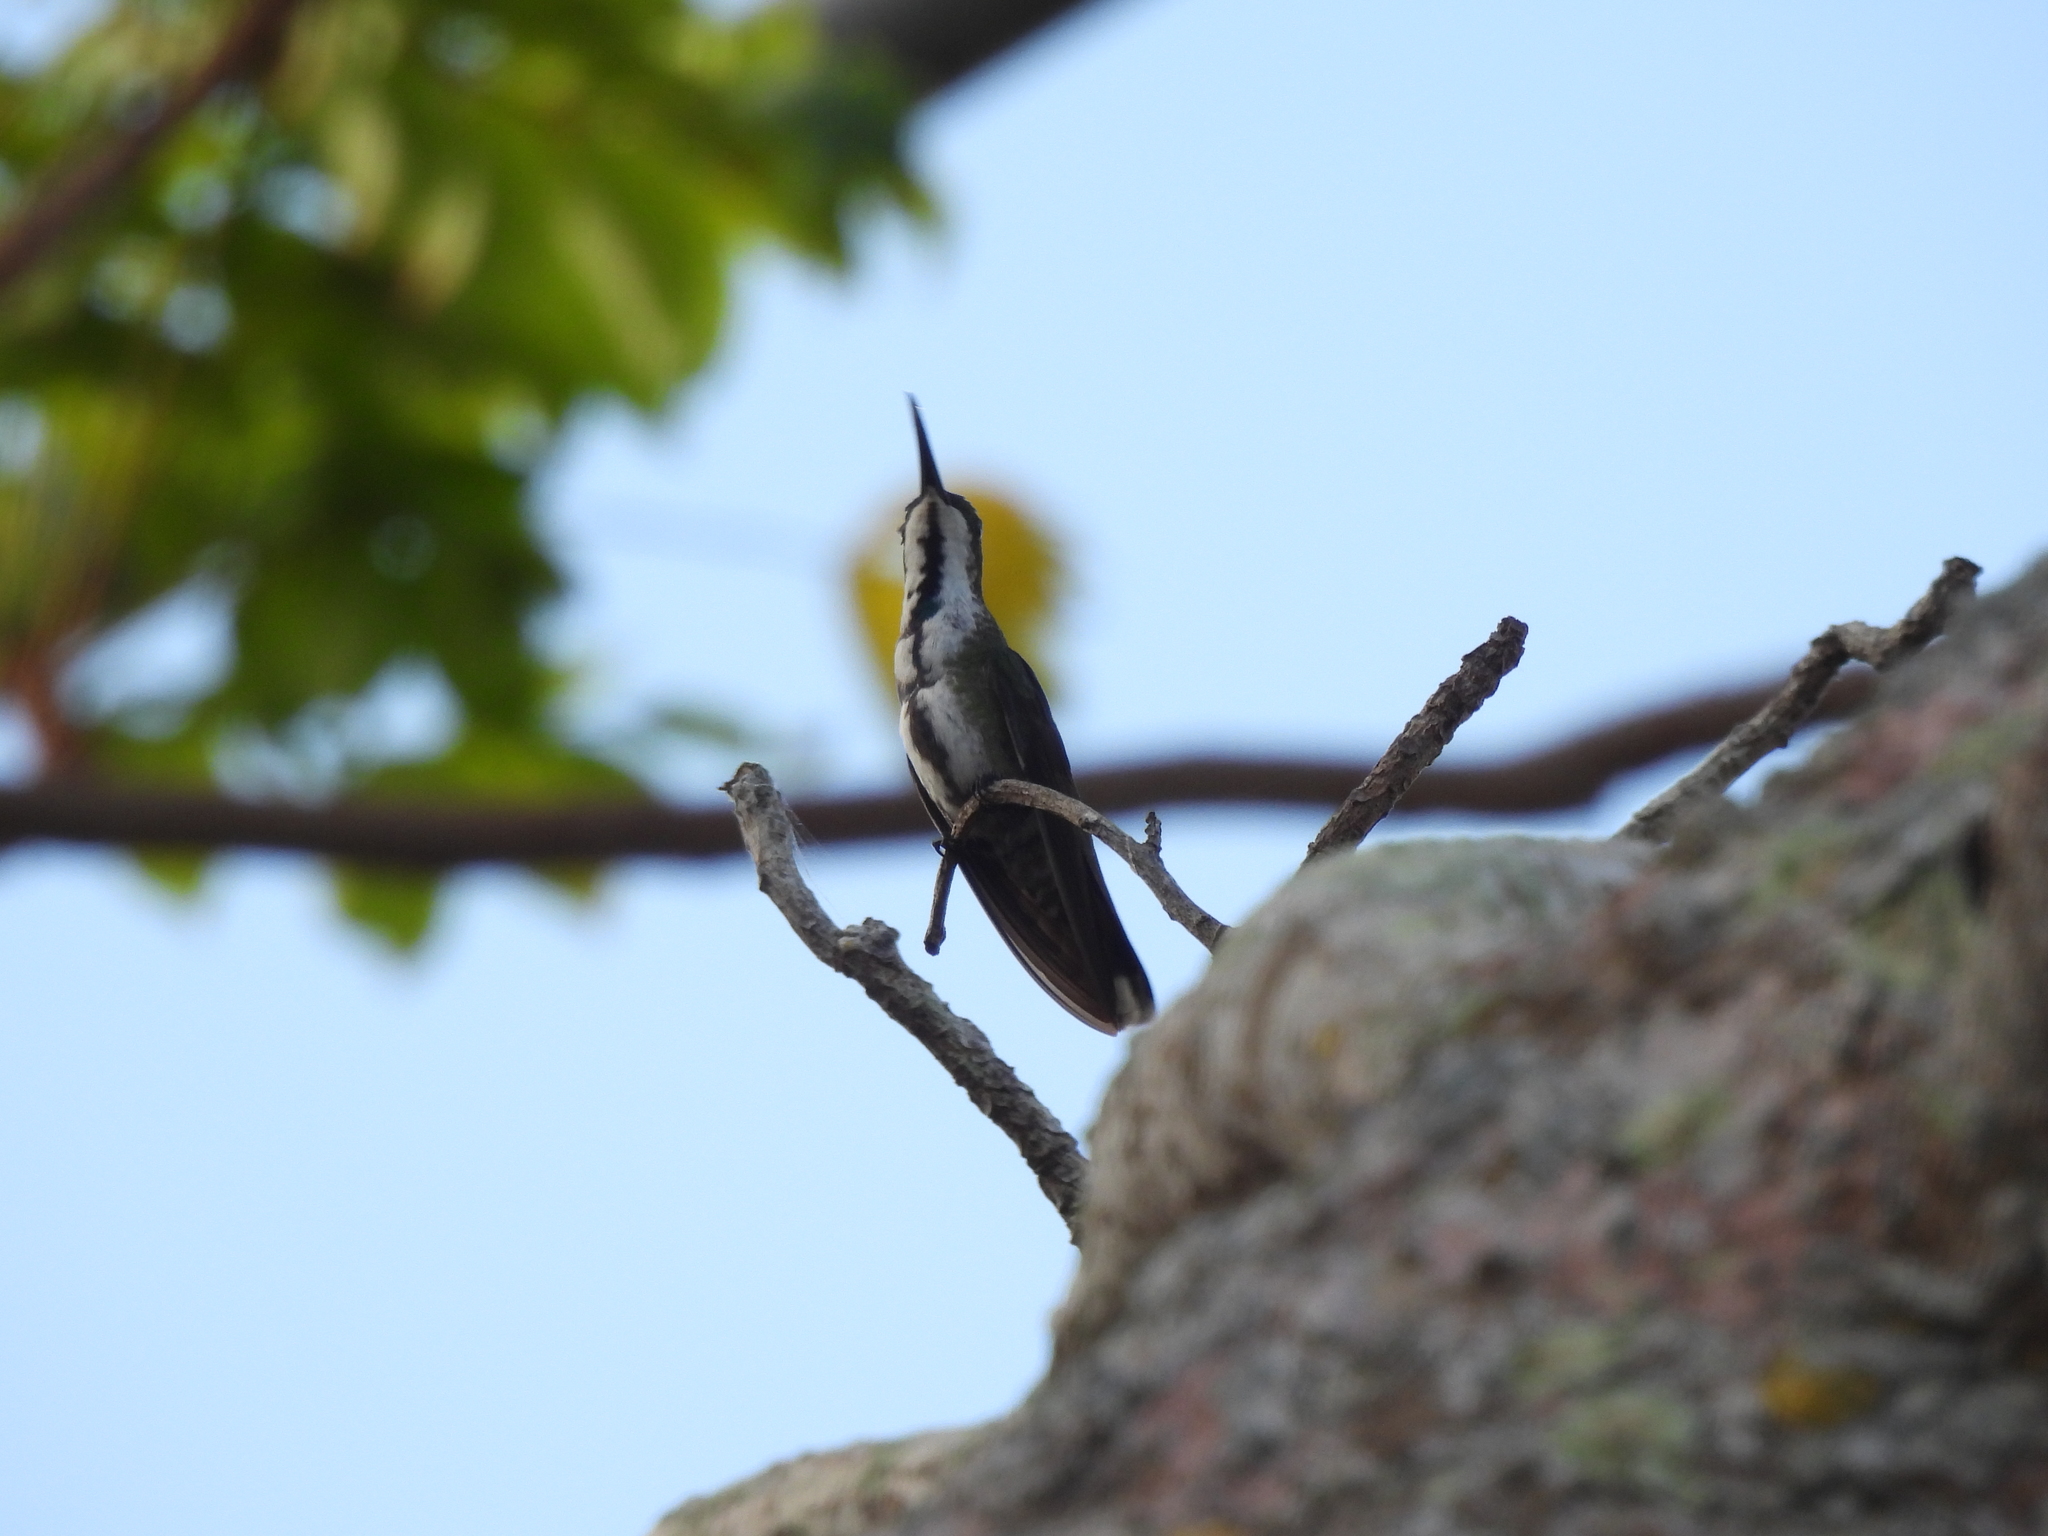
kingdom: Animalia
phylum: Chordata
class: Aves
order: Apodiformes
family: Trochilidae
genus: Anthracothorax
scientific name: Anthracothorax prevostii
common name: Green-breasted mango
